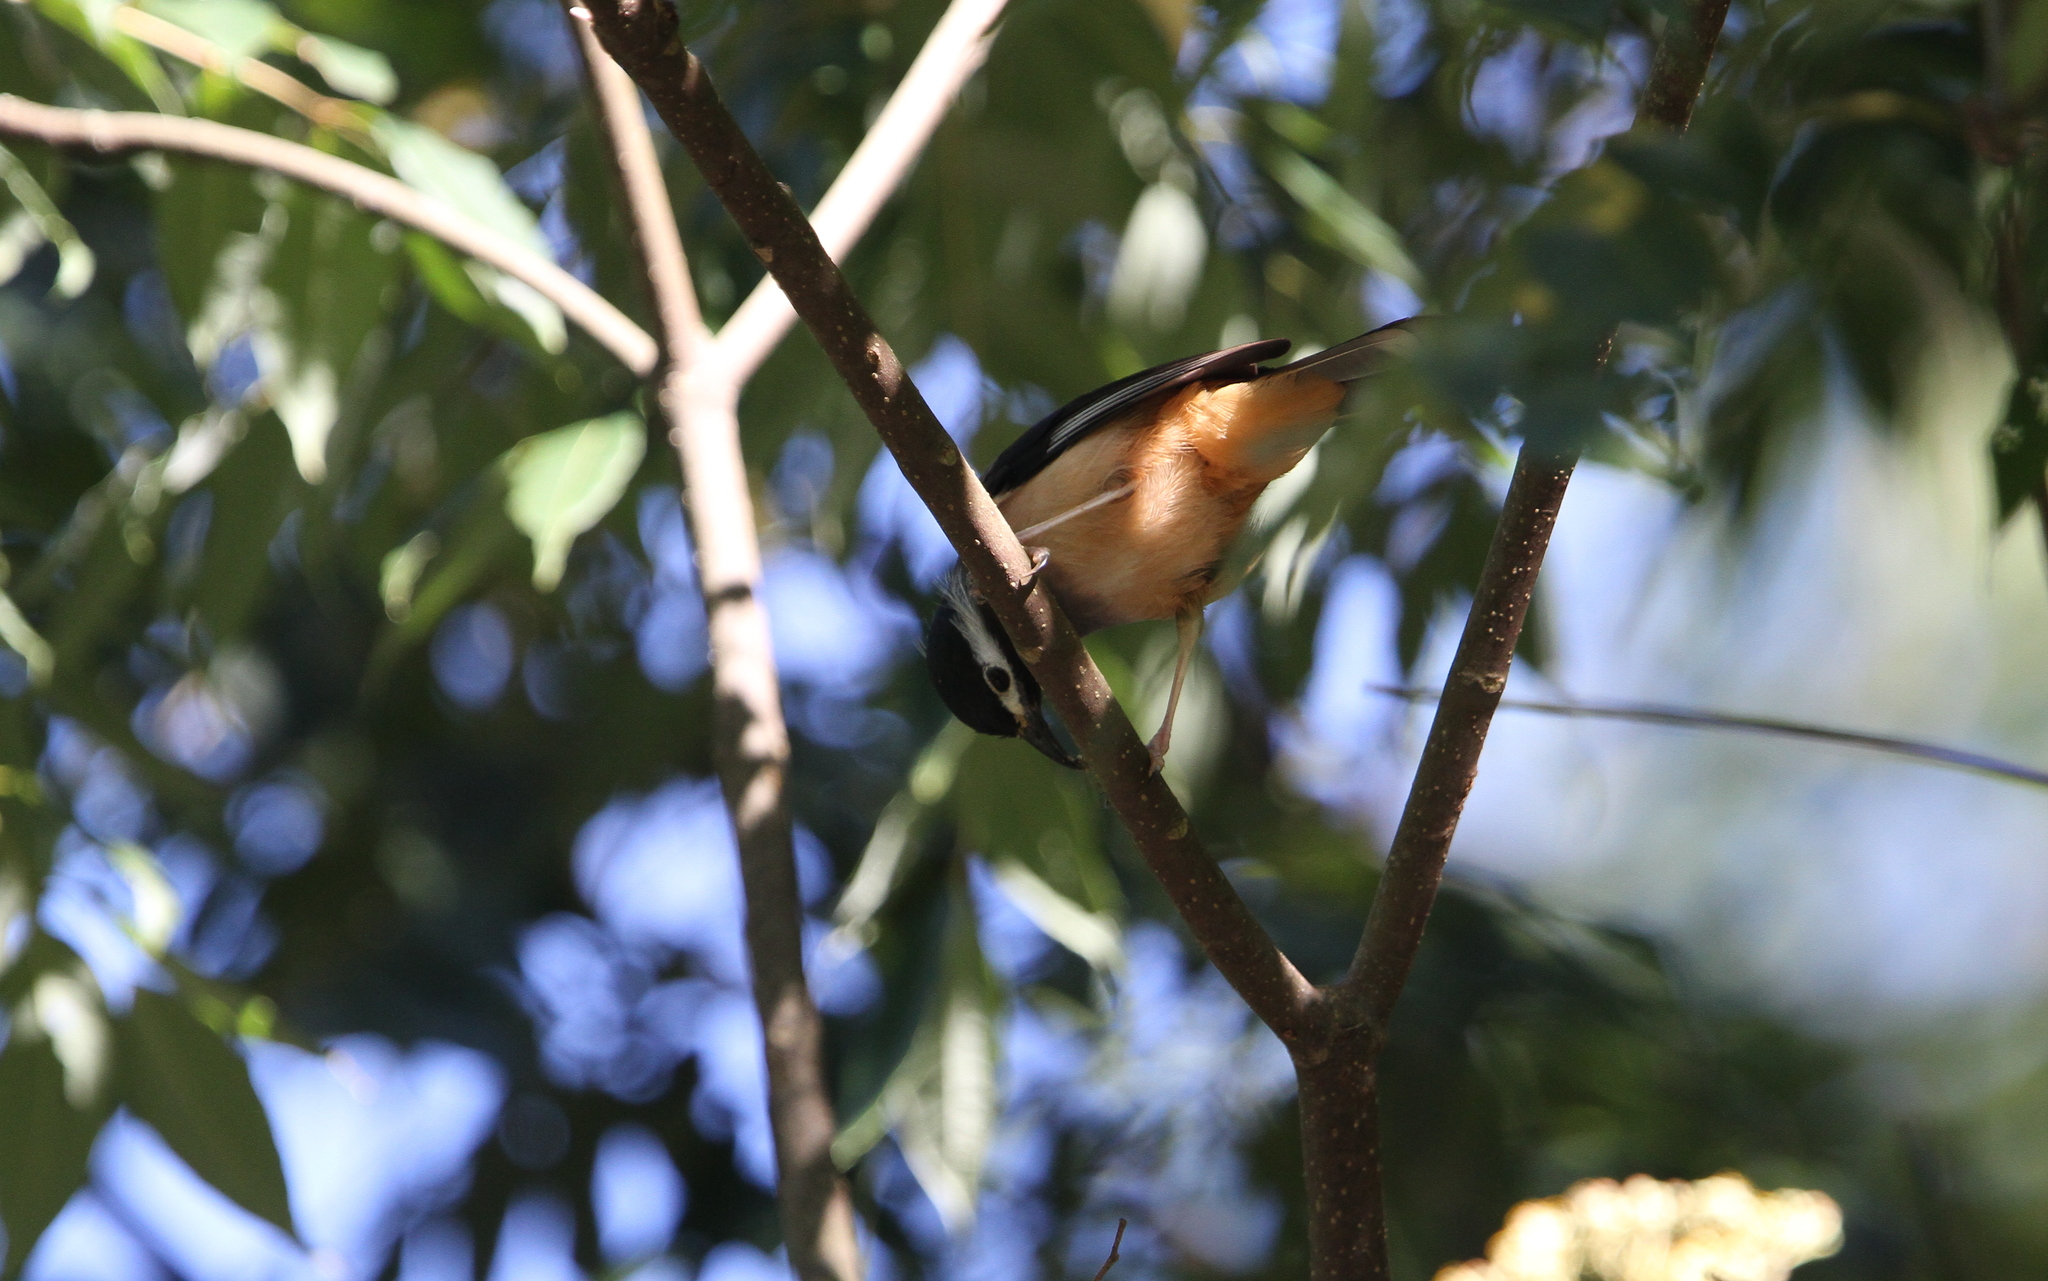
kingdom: Animalia
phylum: Chordata
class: Aves
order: Passeriformes
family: Leiothrichidae
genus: Heterophasia
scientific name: Heterophasia auricularis
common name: White-eared sibia
